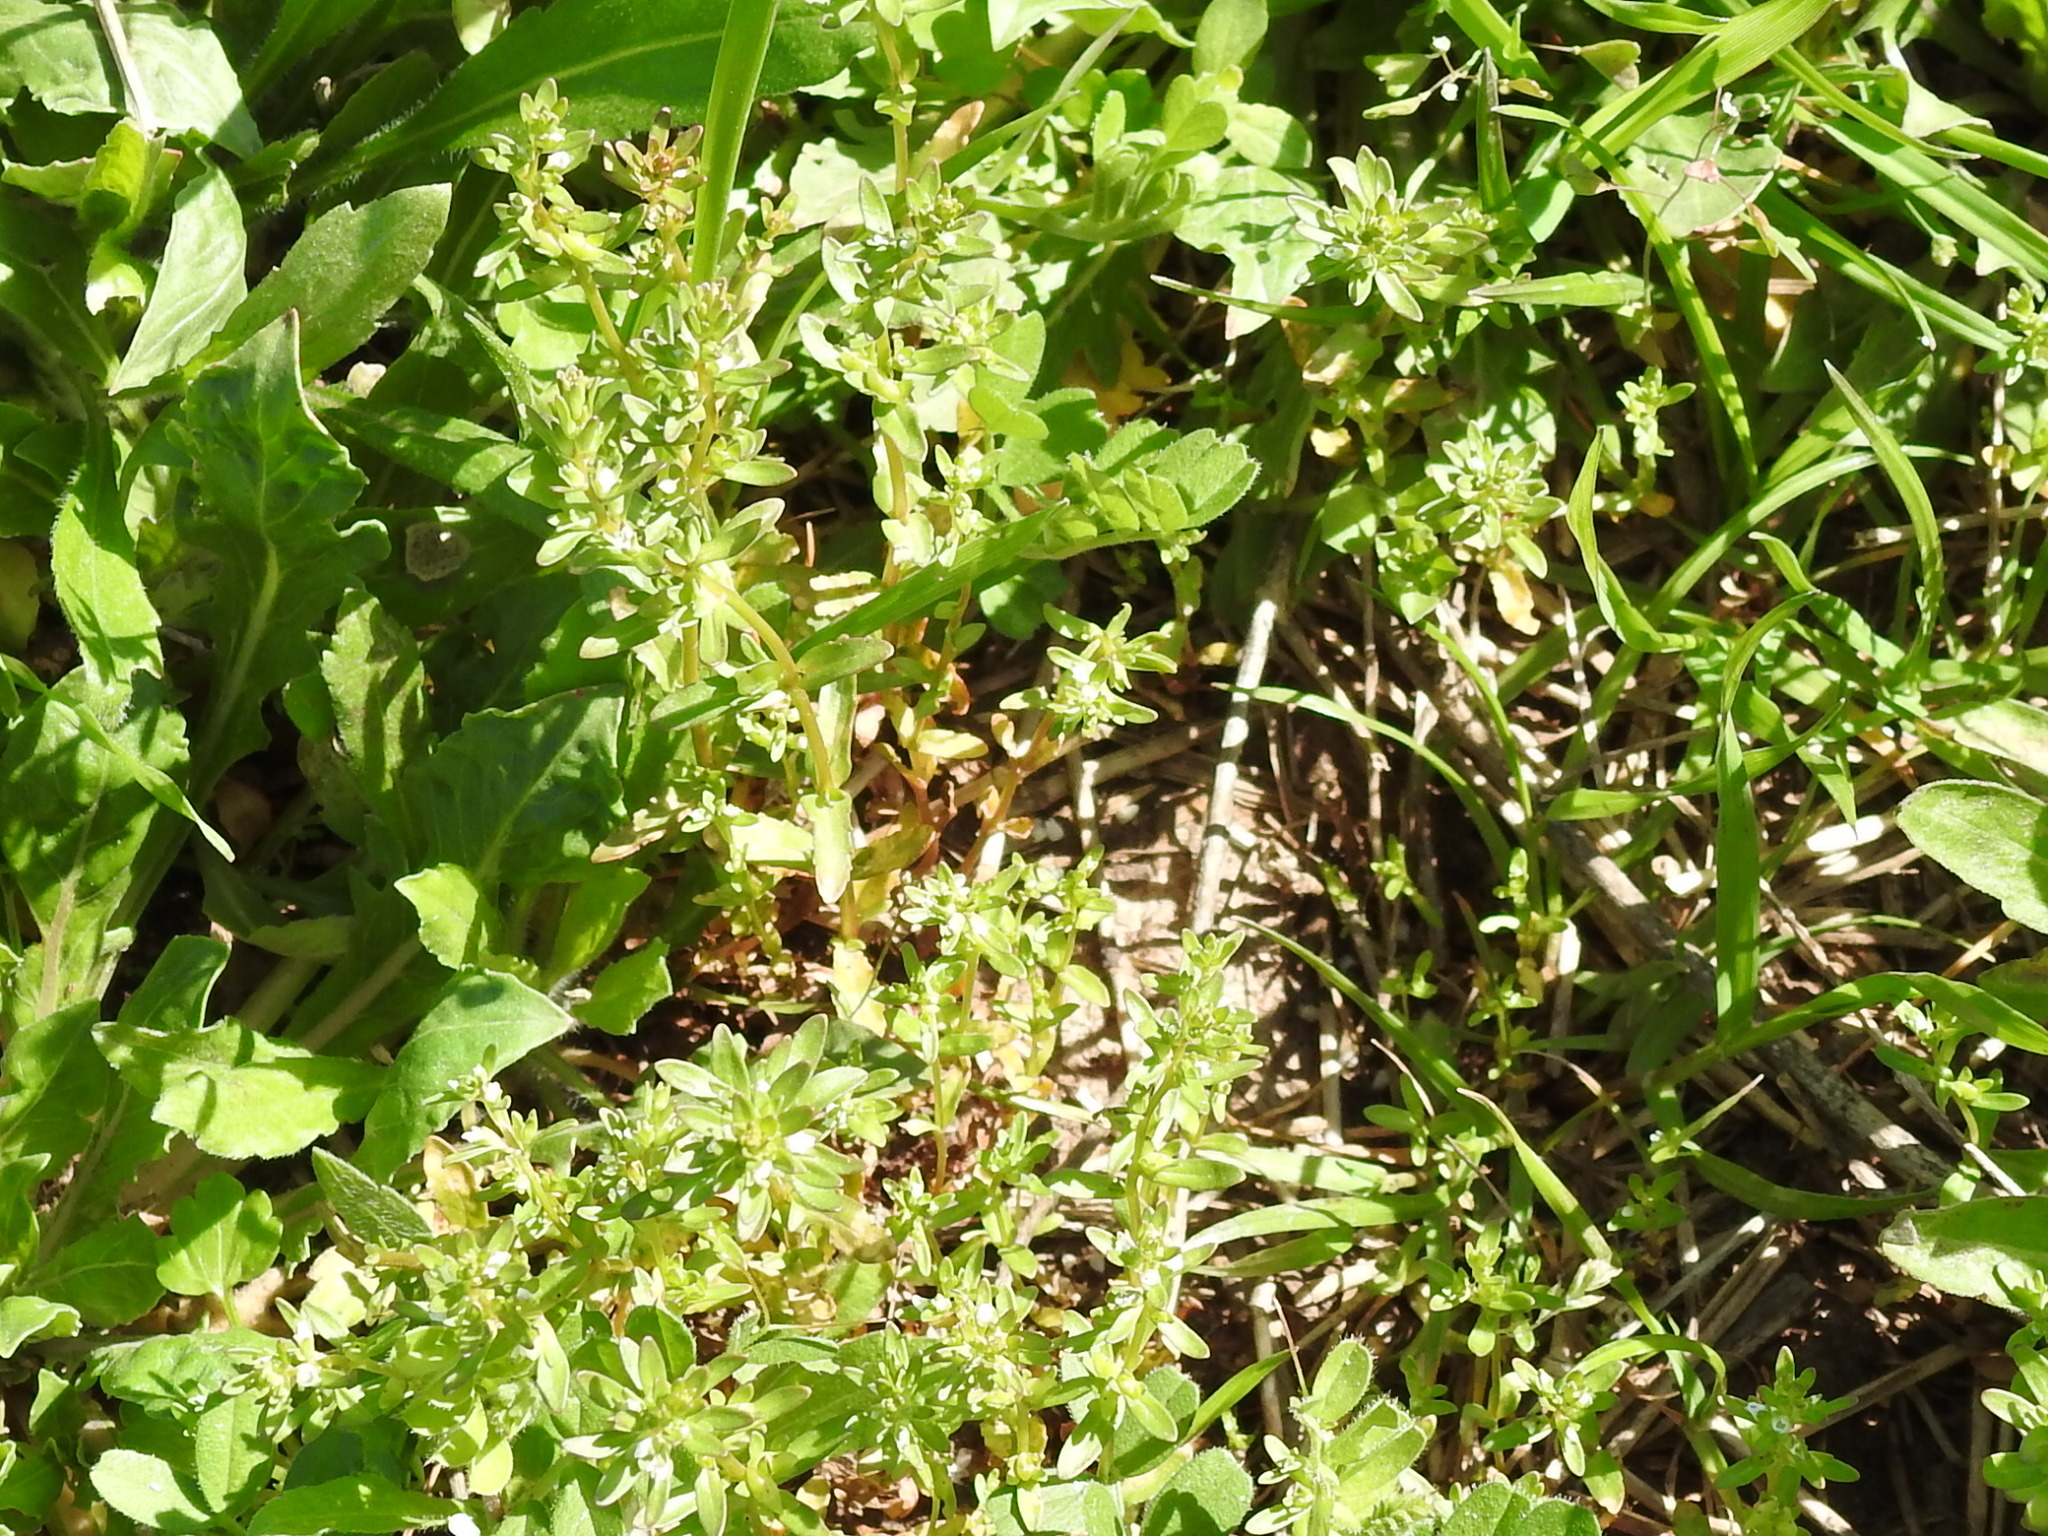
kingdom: Plantae
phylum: Tracheophyta
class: Magnoliopsida
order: Lamiales
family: Plantaginaceae
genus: Veronica
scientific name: Veronica peregrina
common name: Neckweed
